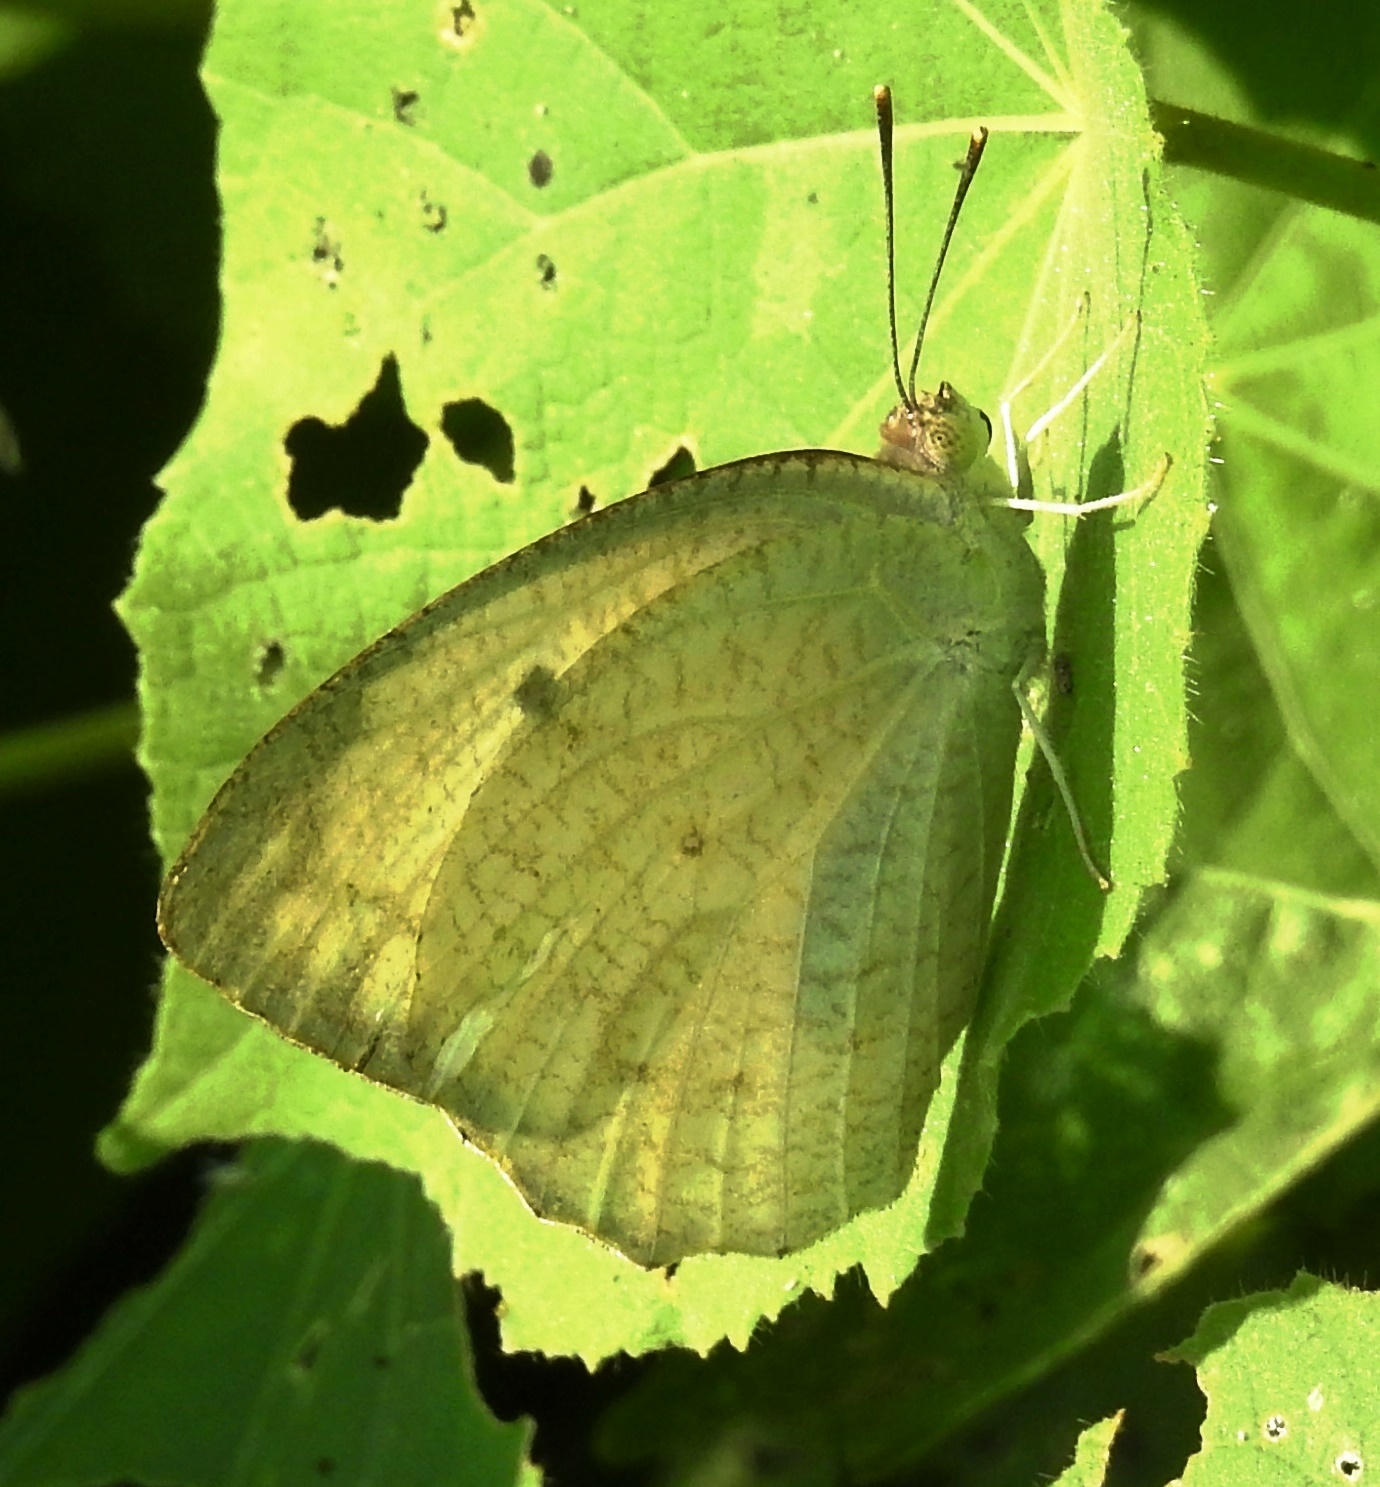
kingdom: Animalia
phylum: Arthropoda
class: Insecta
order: Lepidoptera
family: Pieridae
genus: Catopsilia
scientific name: Catopsilia pyranthe
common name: Mottled emigrant
